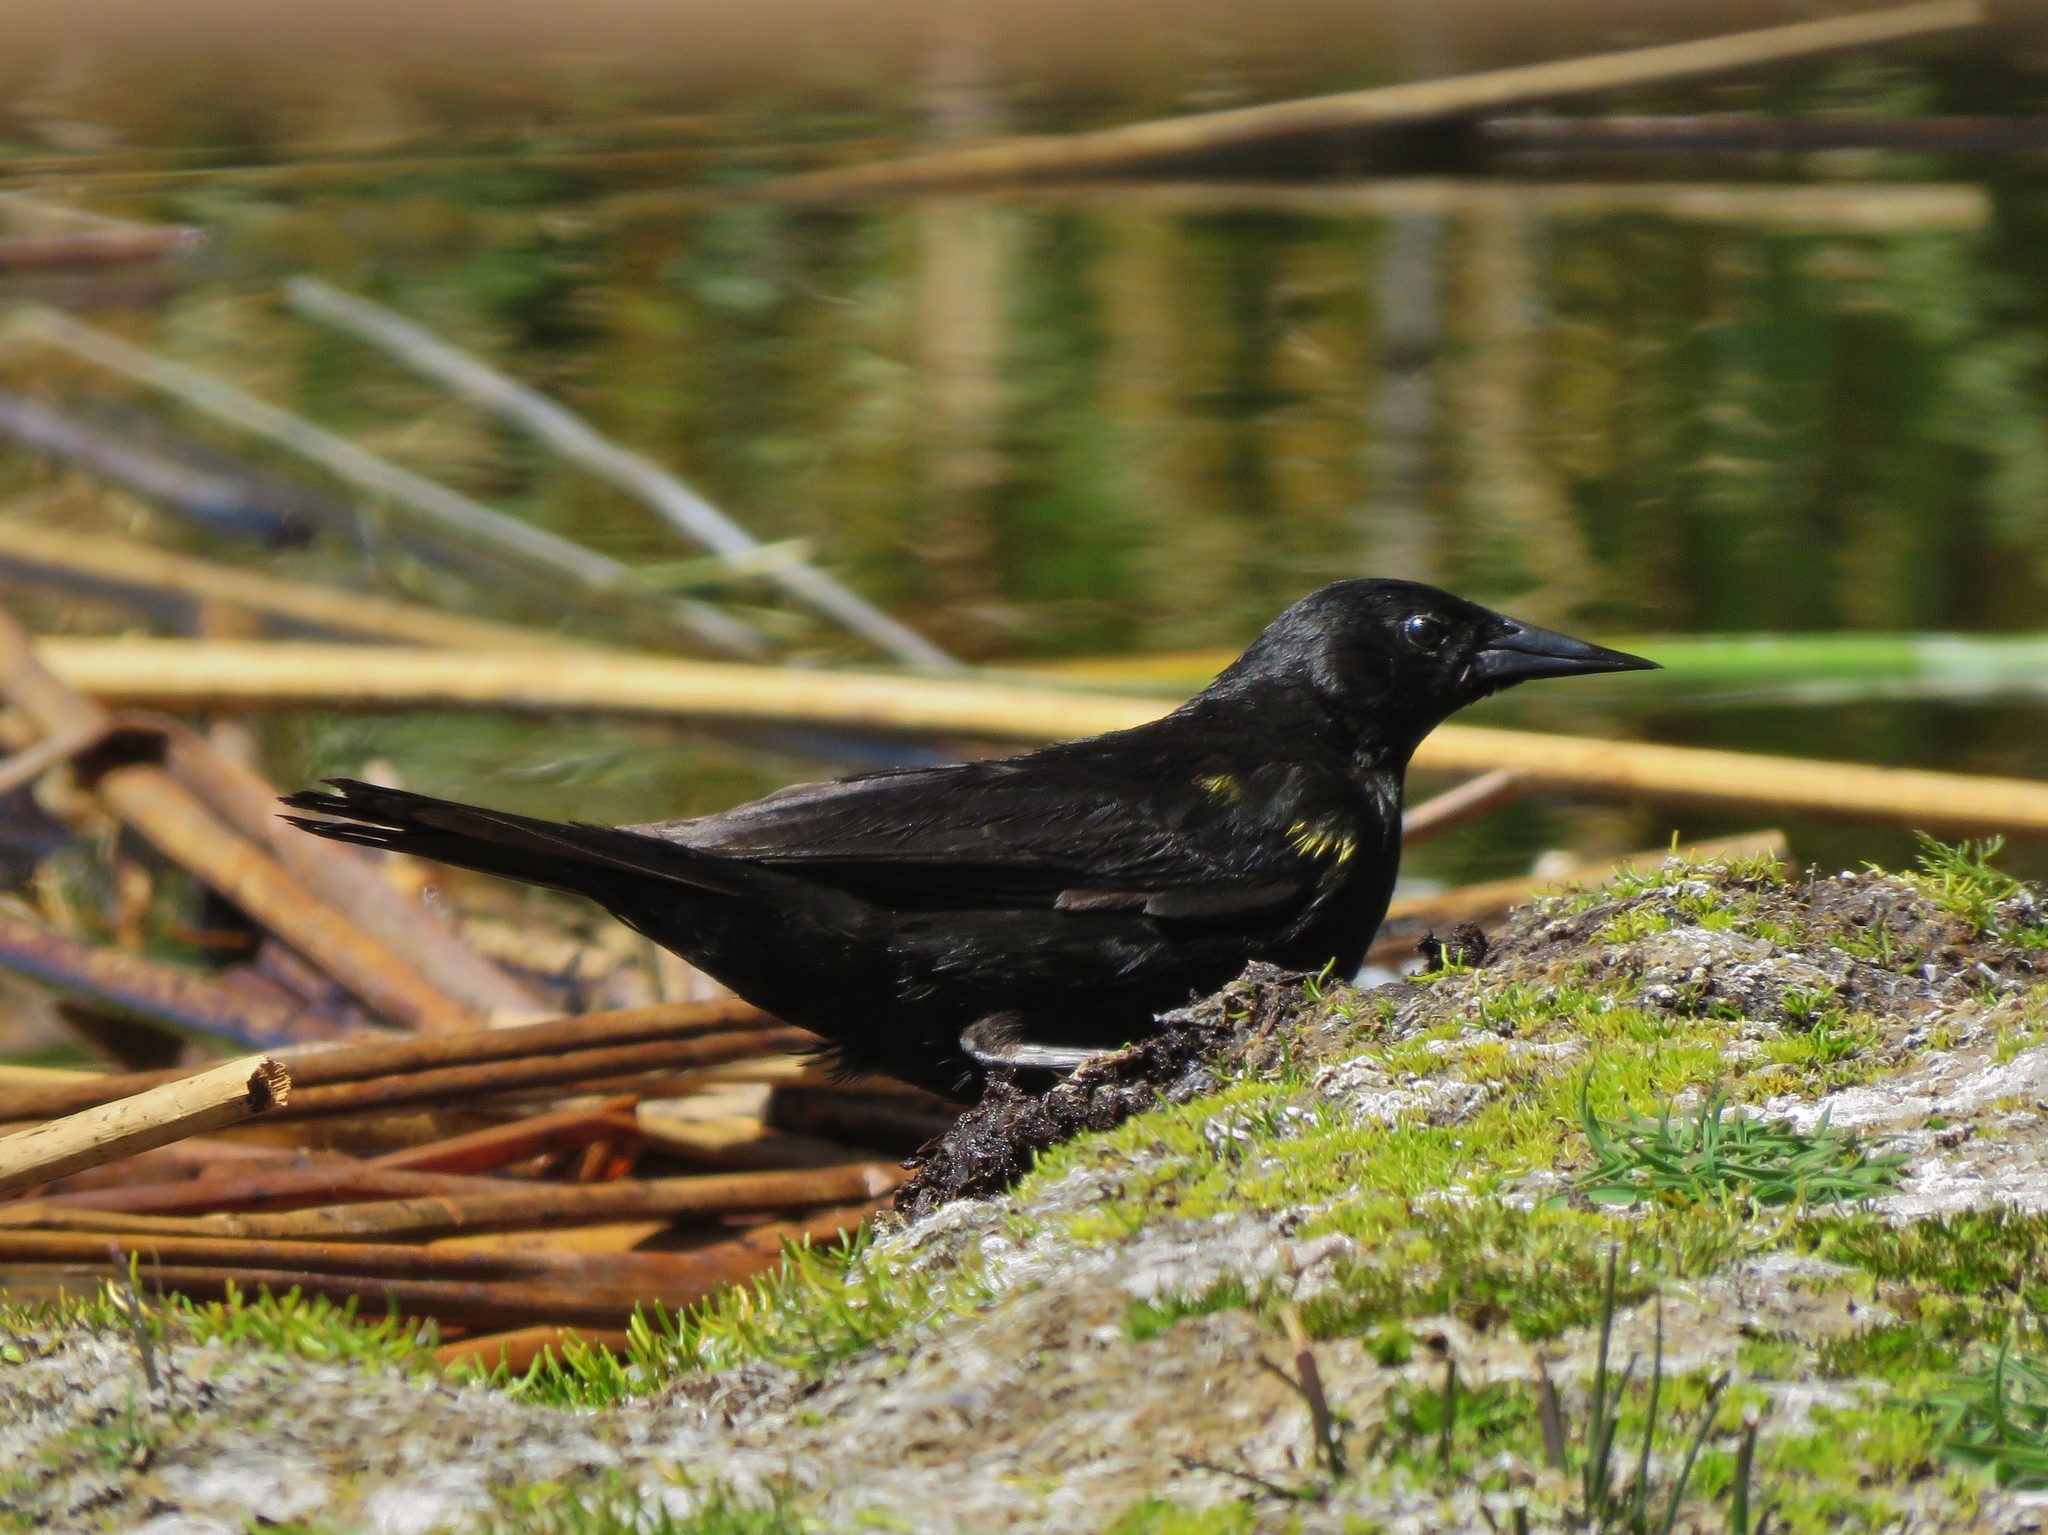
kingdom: Animalia
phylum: Chordata
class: Aves
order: Passeriformes
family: Icteridae
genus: Agelasticus
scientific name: Agelasticus thilius
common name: Yellow-winged blackbird
